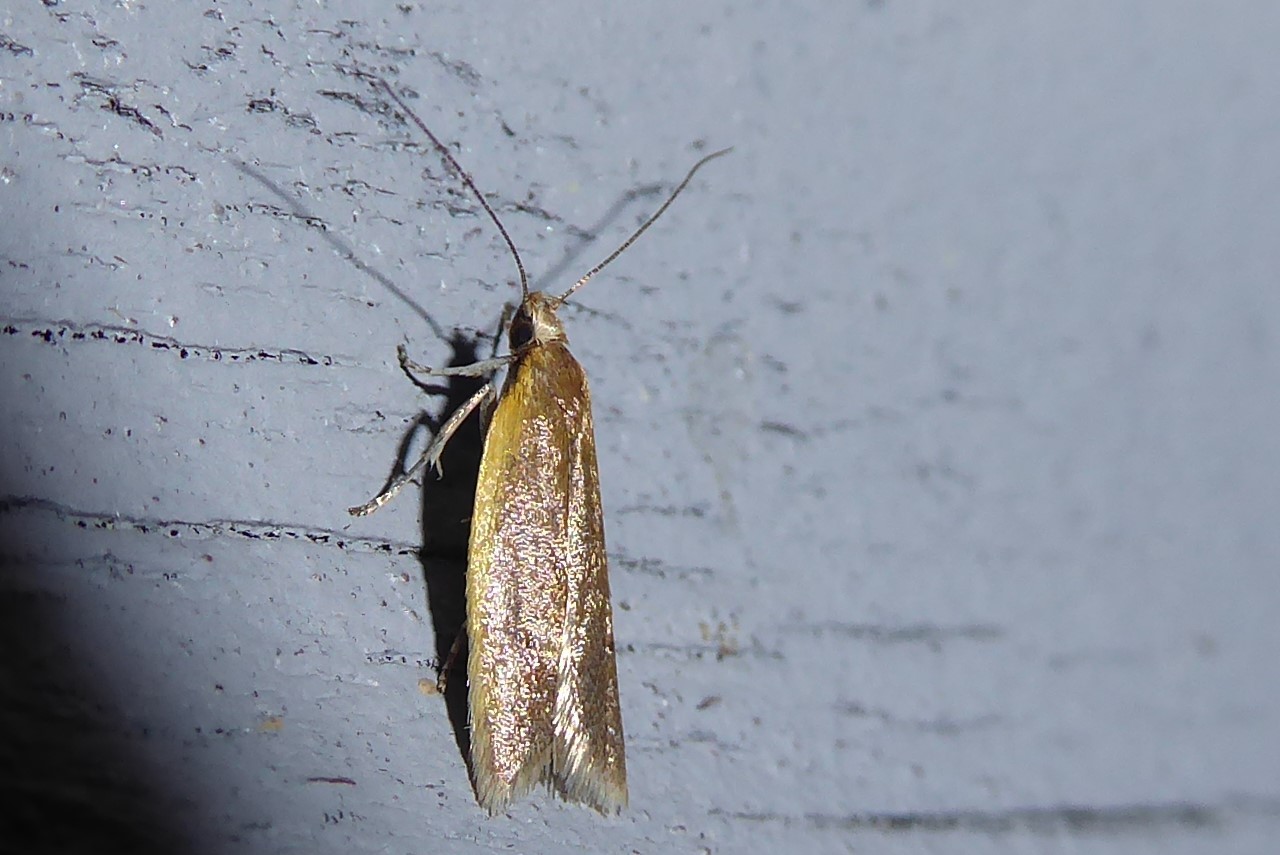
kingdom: Animalia
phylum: Arthropoda
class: Insecta
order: Lepidoptera
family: Oecophoridae
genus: Gymnobathra
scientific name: Gymnobathra parca
